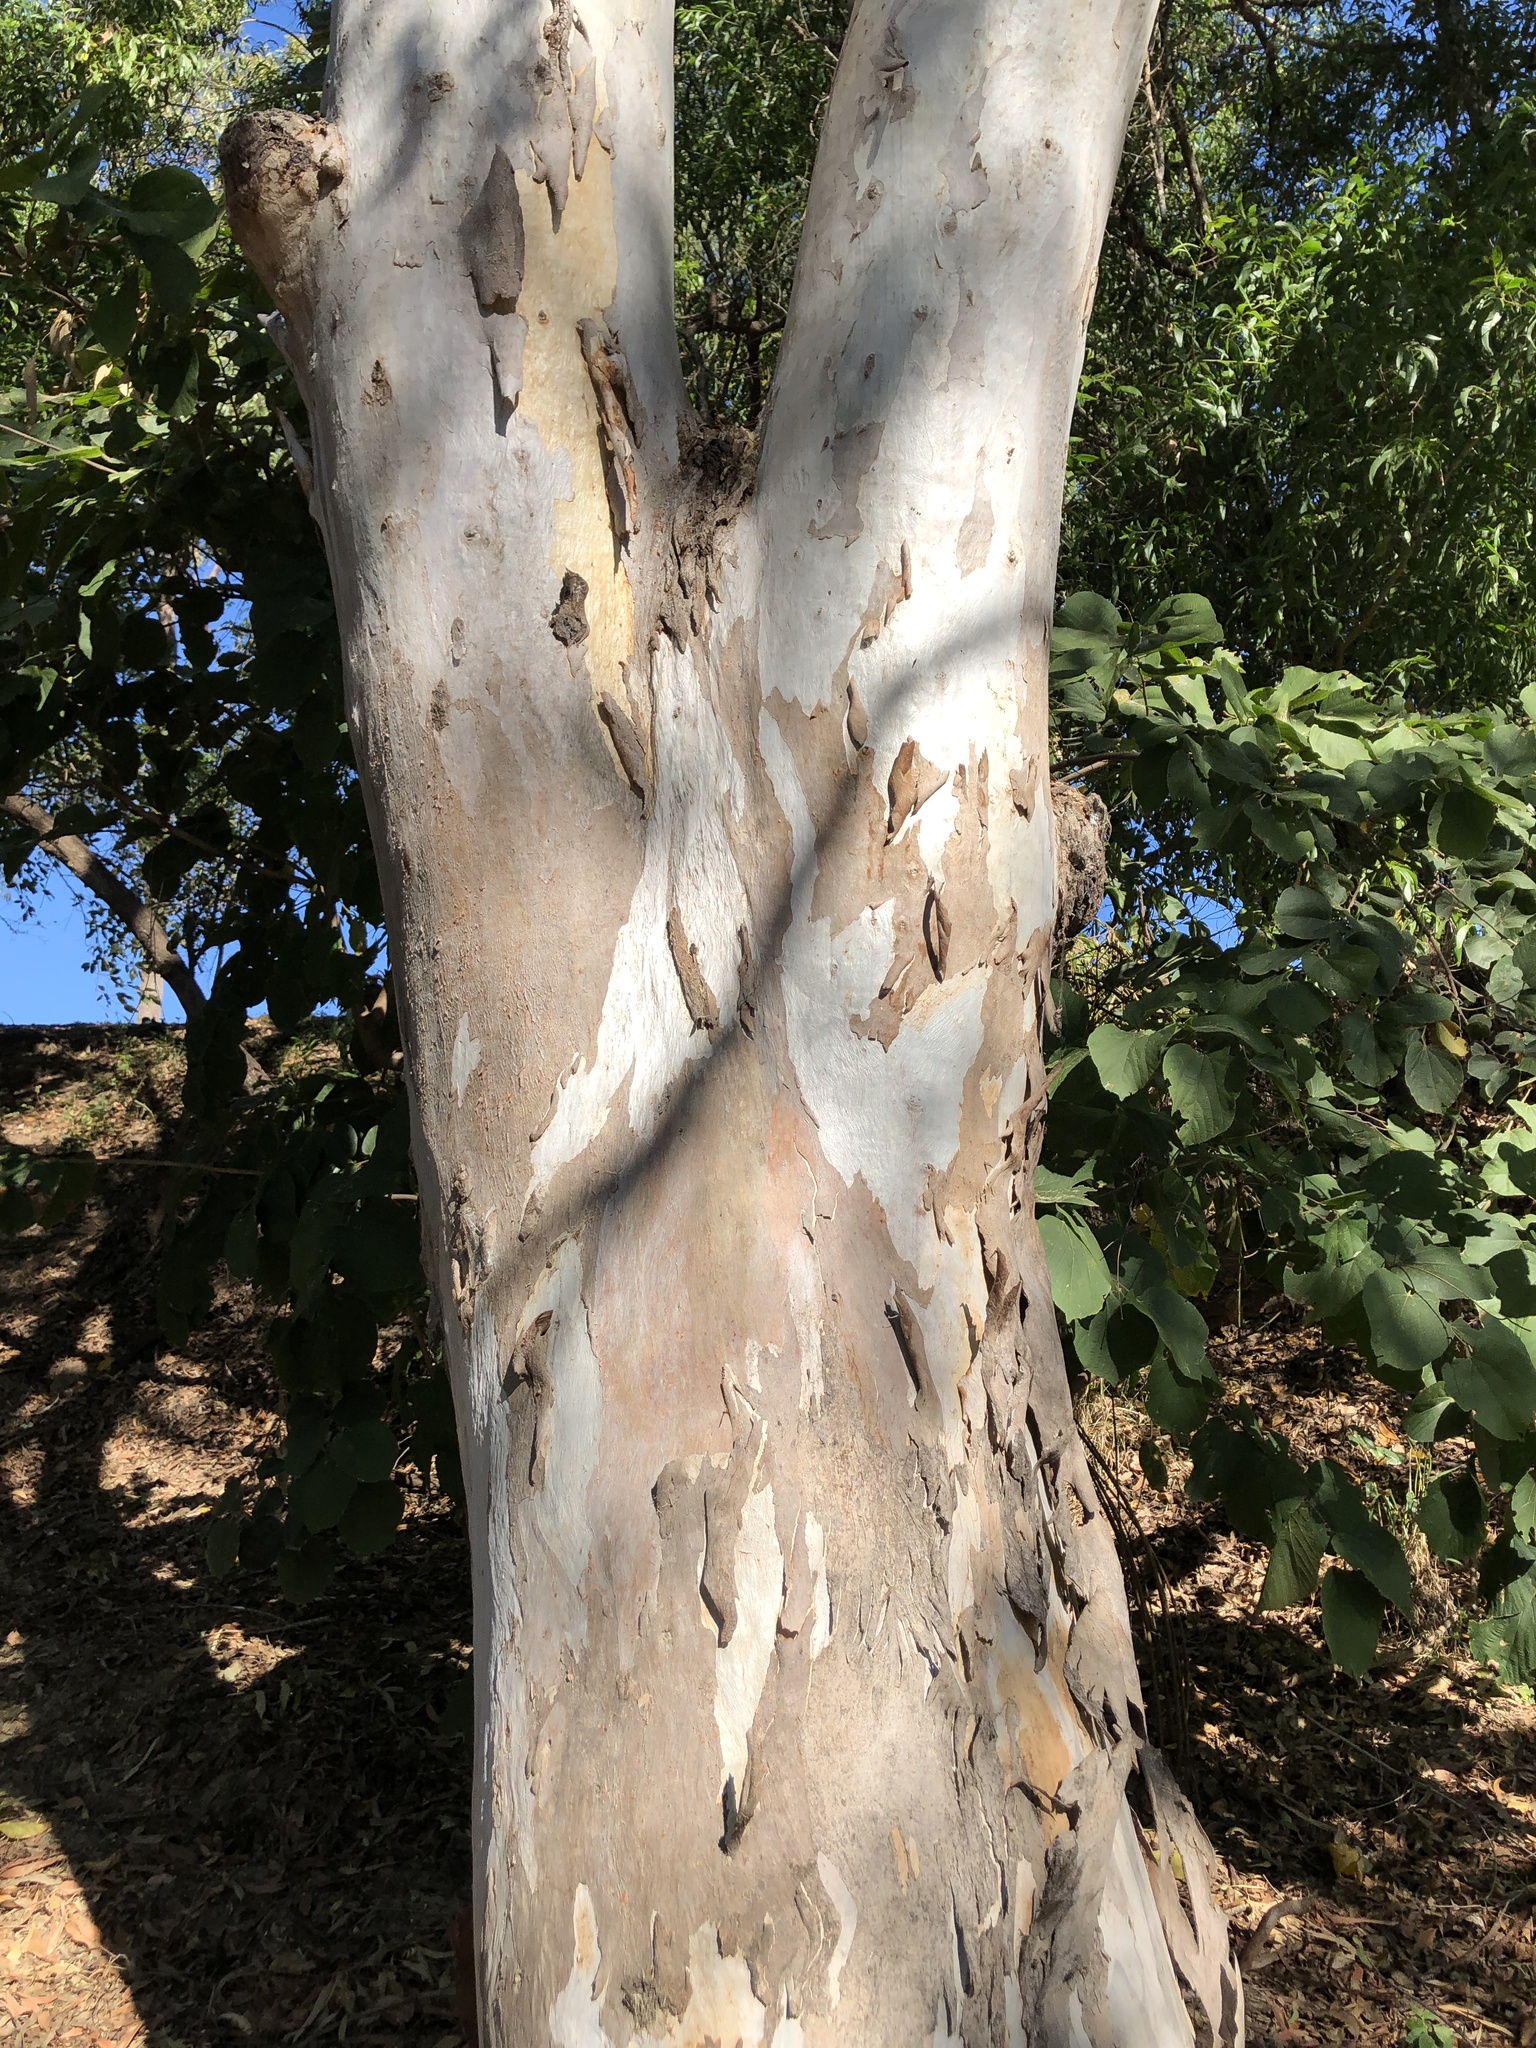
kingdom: Plantae
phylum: Tracheophyta
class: Magnoliopsida
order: Myrtales
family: Myrtaceae
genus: Eucalyptus
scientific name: Eucalyptus tereticornis
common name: Forest redgum
